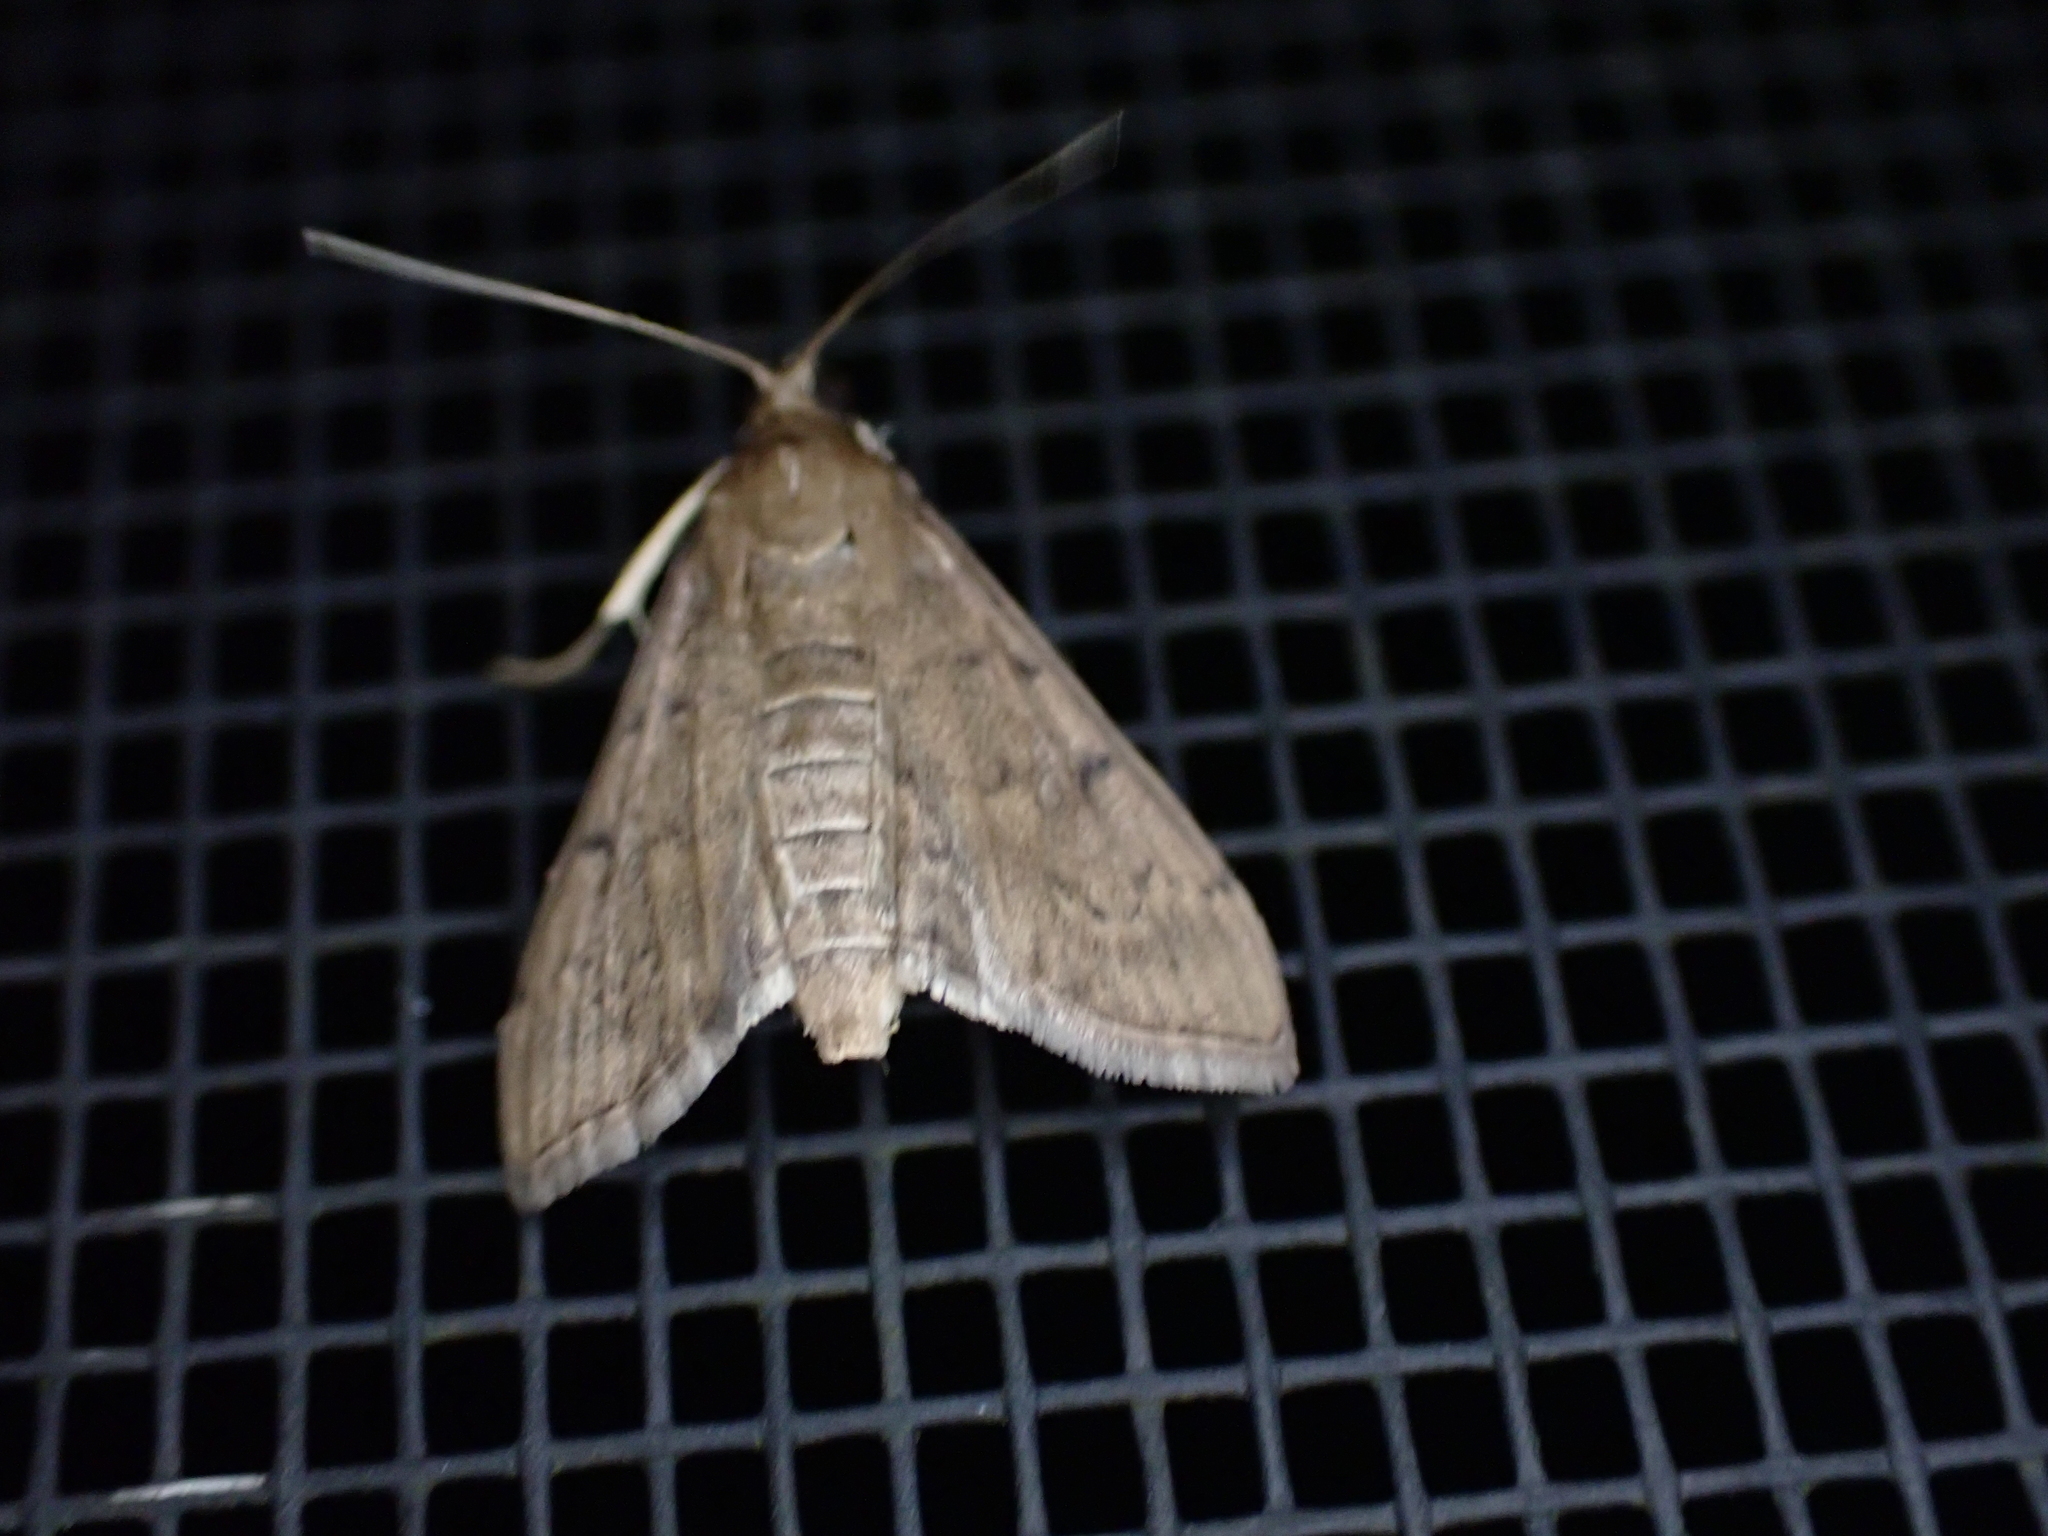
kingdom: Animalia
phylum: Arthropoda
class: Insecta
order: Lepidoptera
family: Crambidae
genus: Herpetogramma
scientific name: Herpetogramma phaeopteralis
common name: Dusky herpetogramma moth
